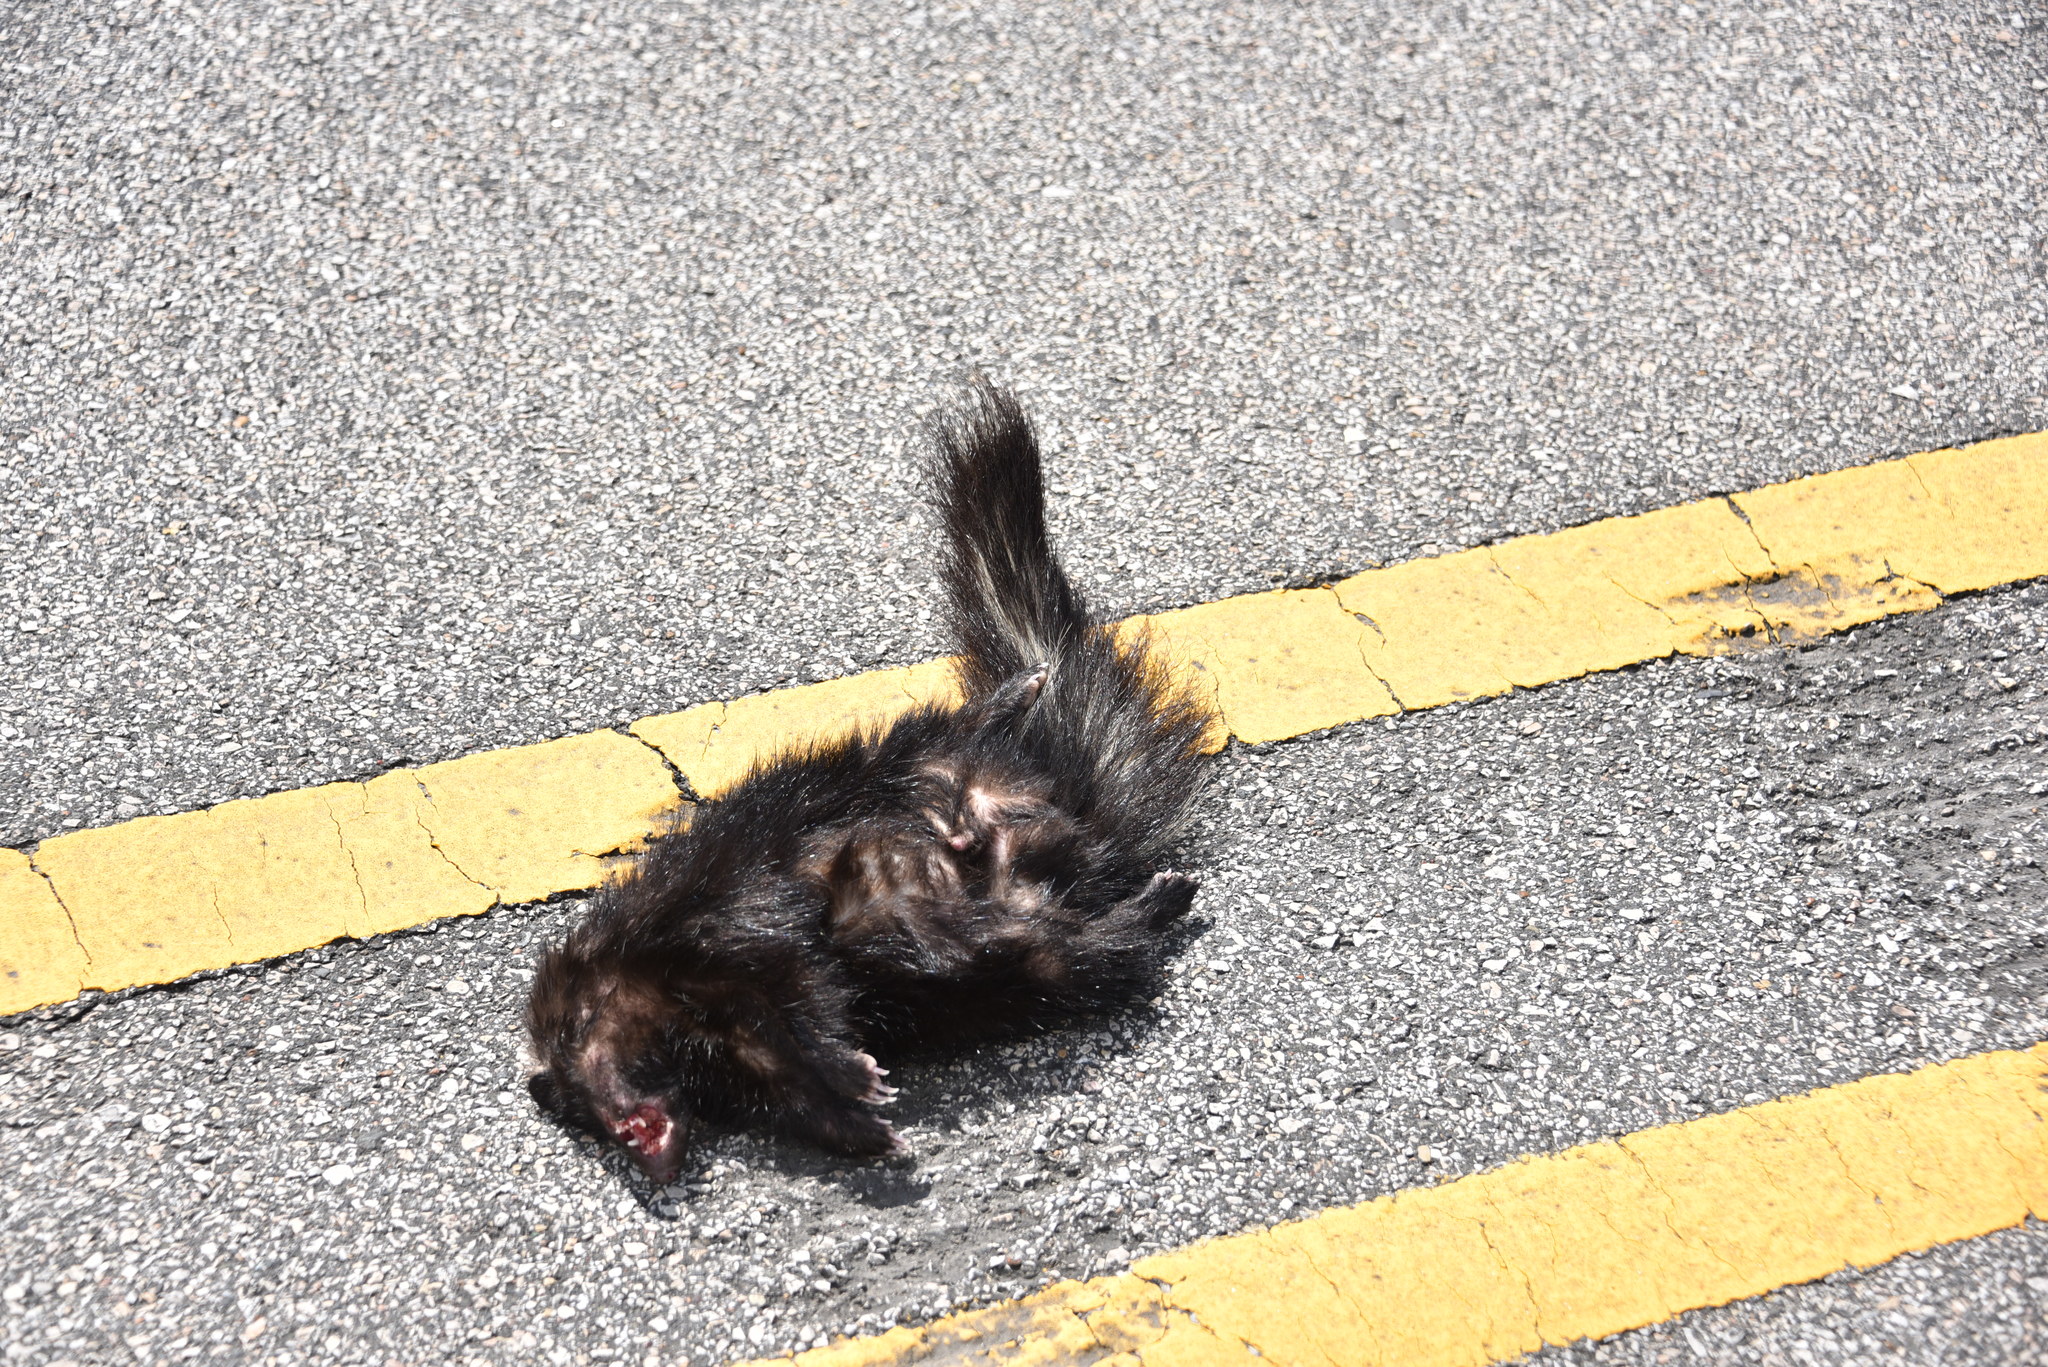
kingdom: Animalia
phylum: Chordata
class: Mammalia
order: Carnivora
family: Mephitidae
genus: Mephitis
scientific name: Mephitis mephitis
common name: Striped skunk
